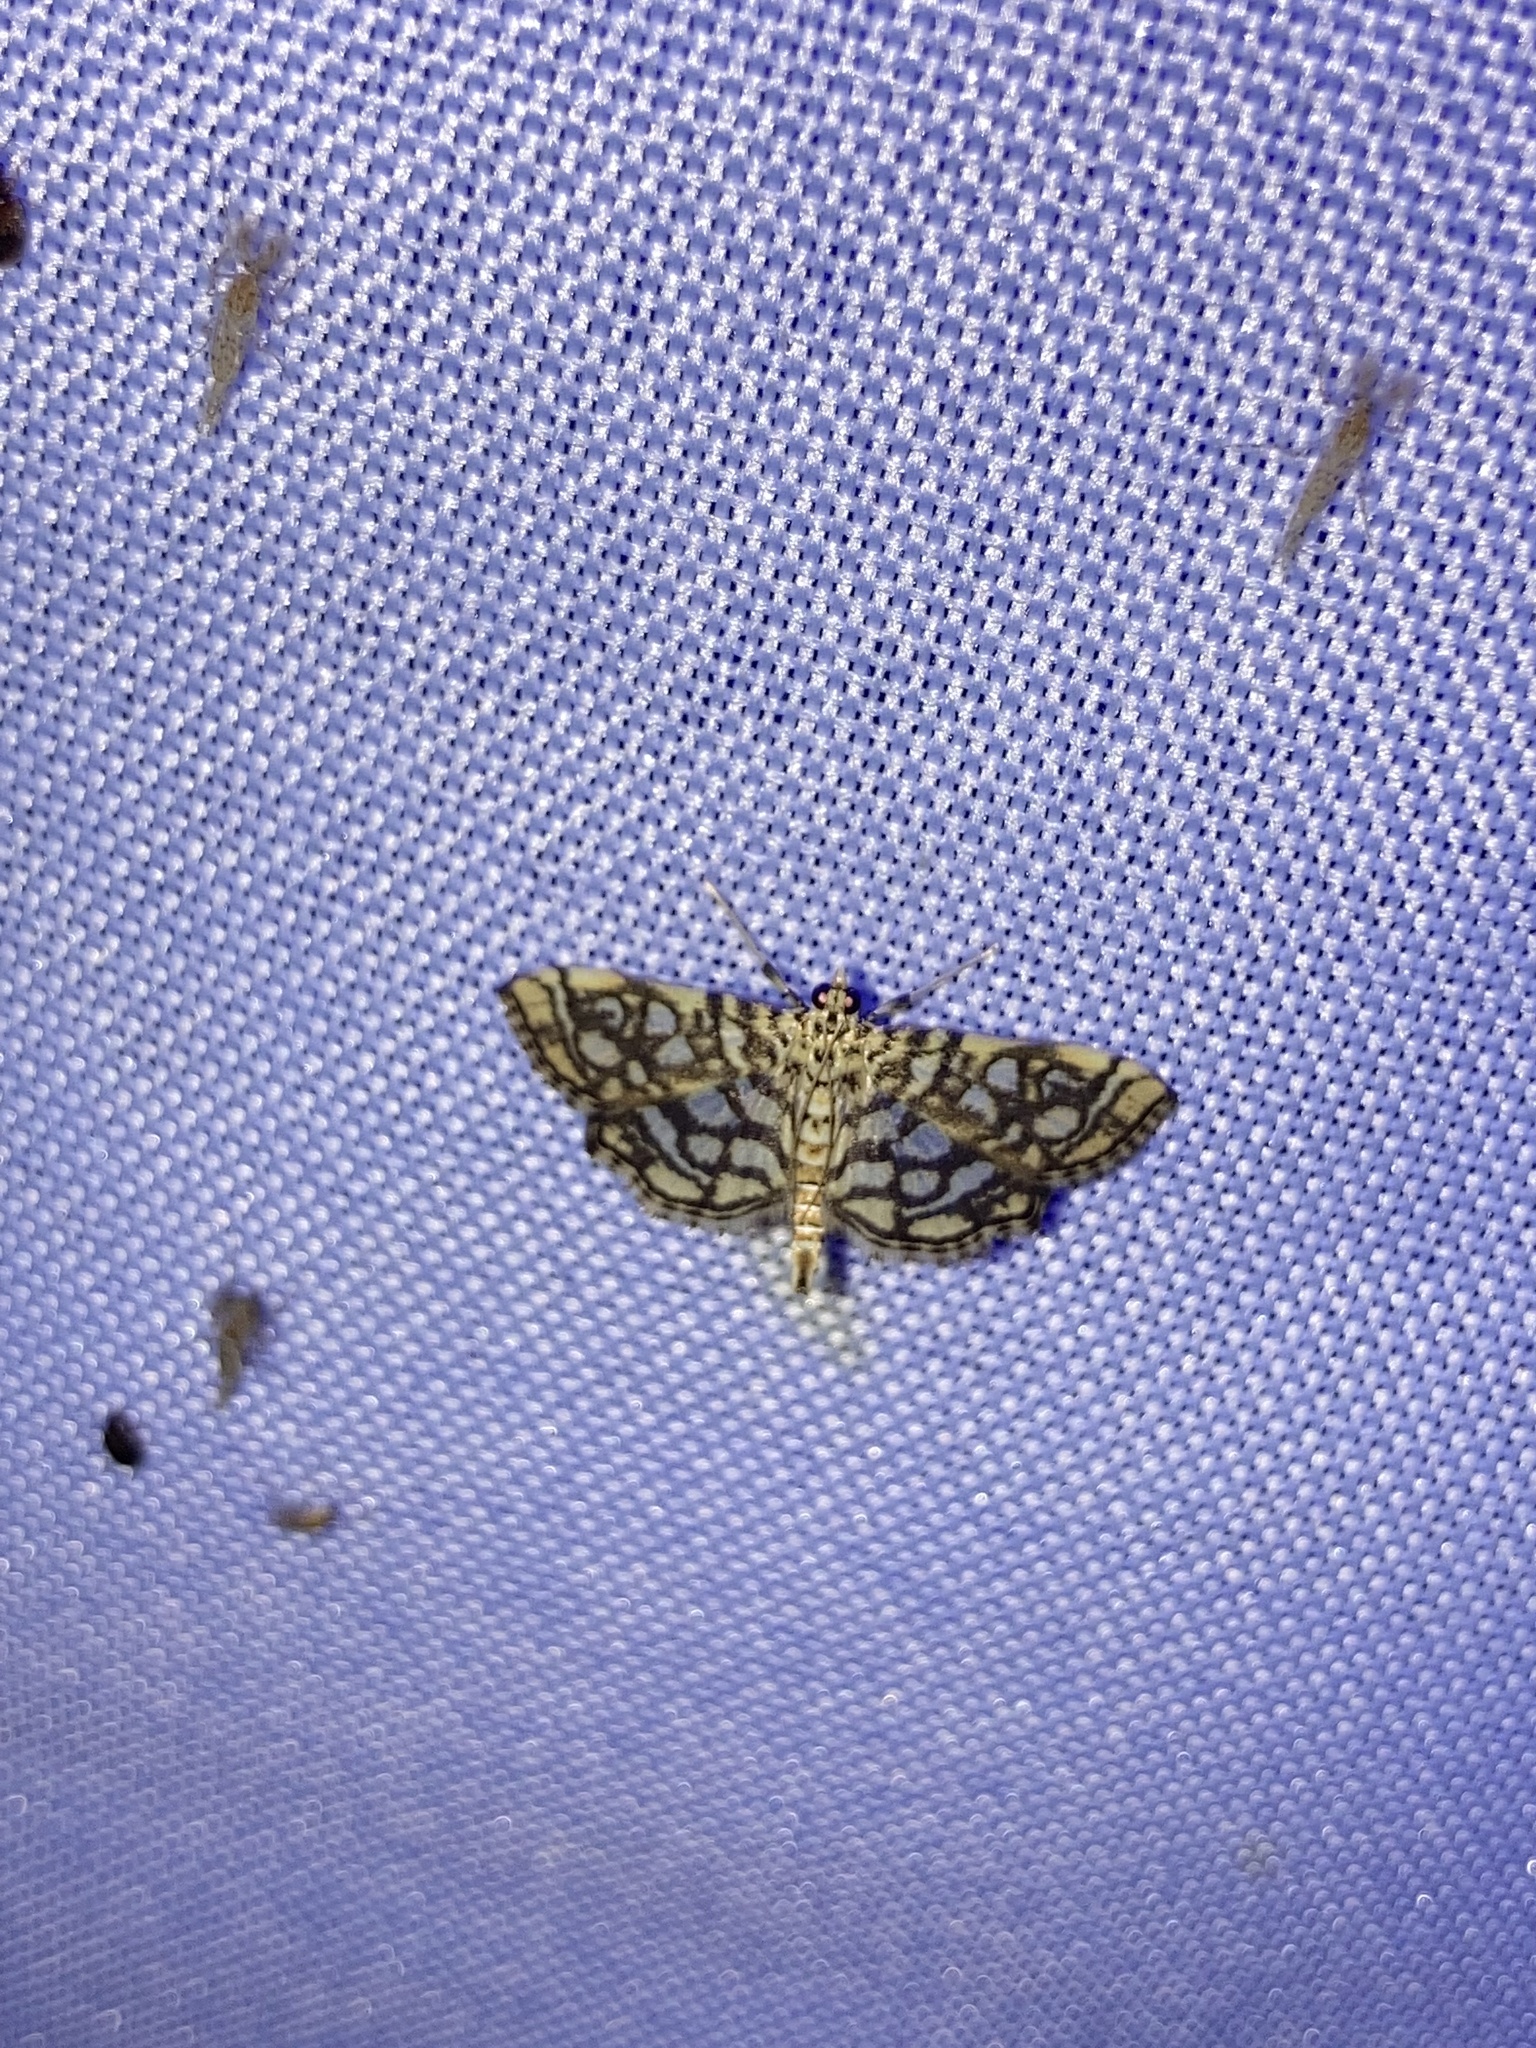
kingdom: Animalia
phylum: Arthropoda
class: Insecta
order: Lepidoptera
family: Crambidae
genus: Lygropia
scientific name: Lygropia rivulalis
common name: Bog lygropia moth
